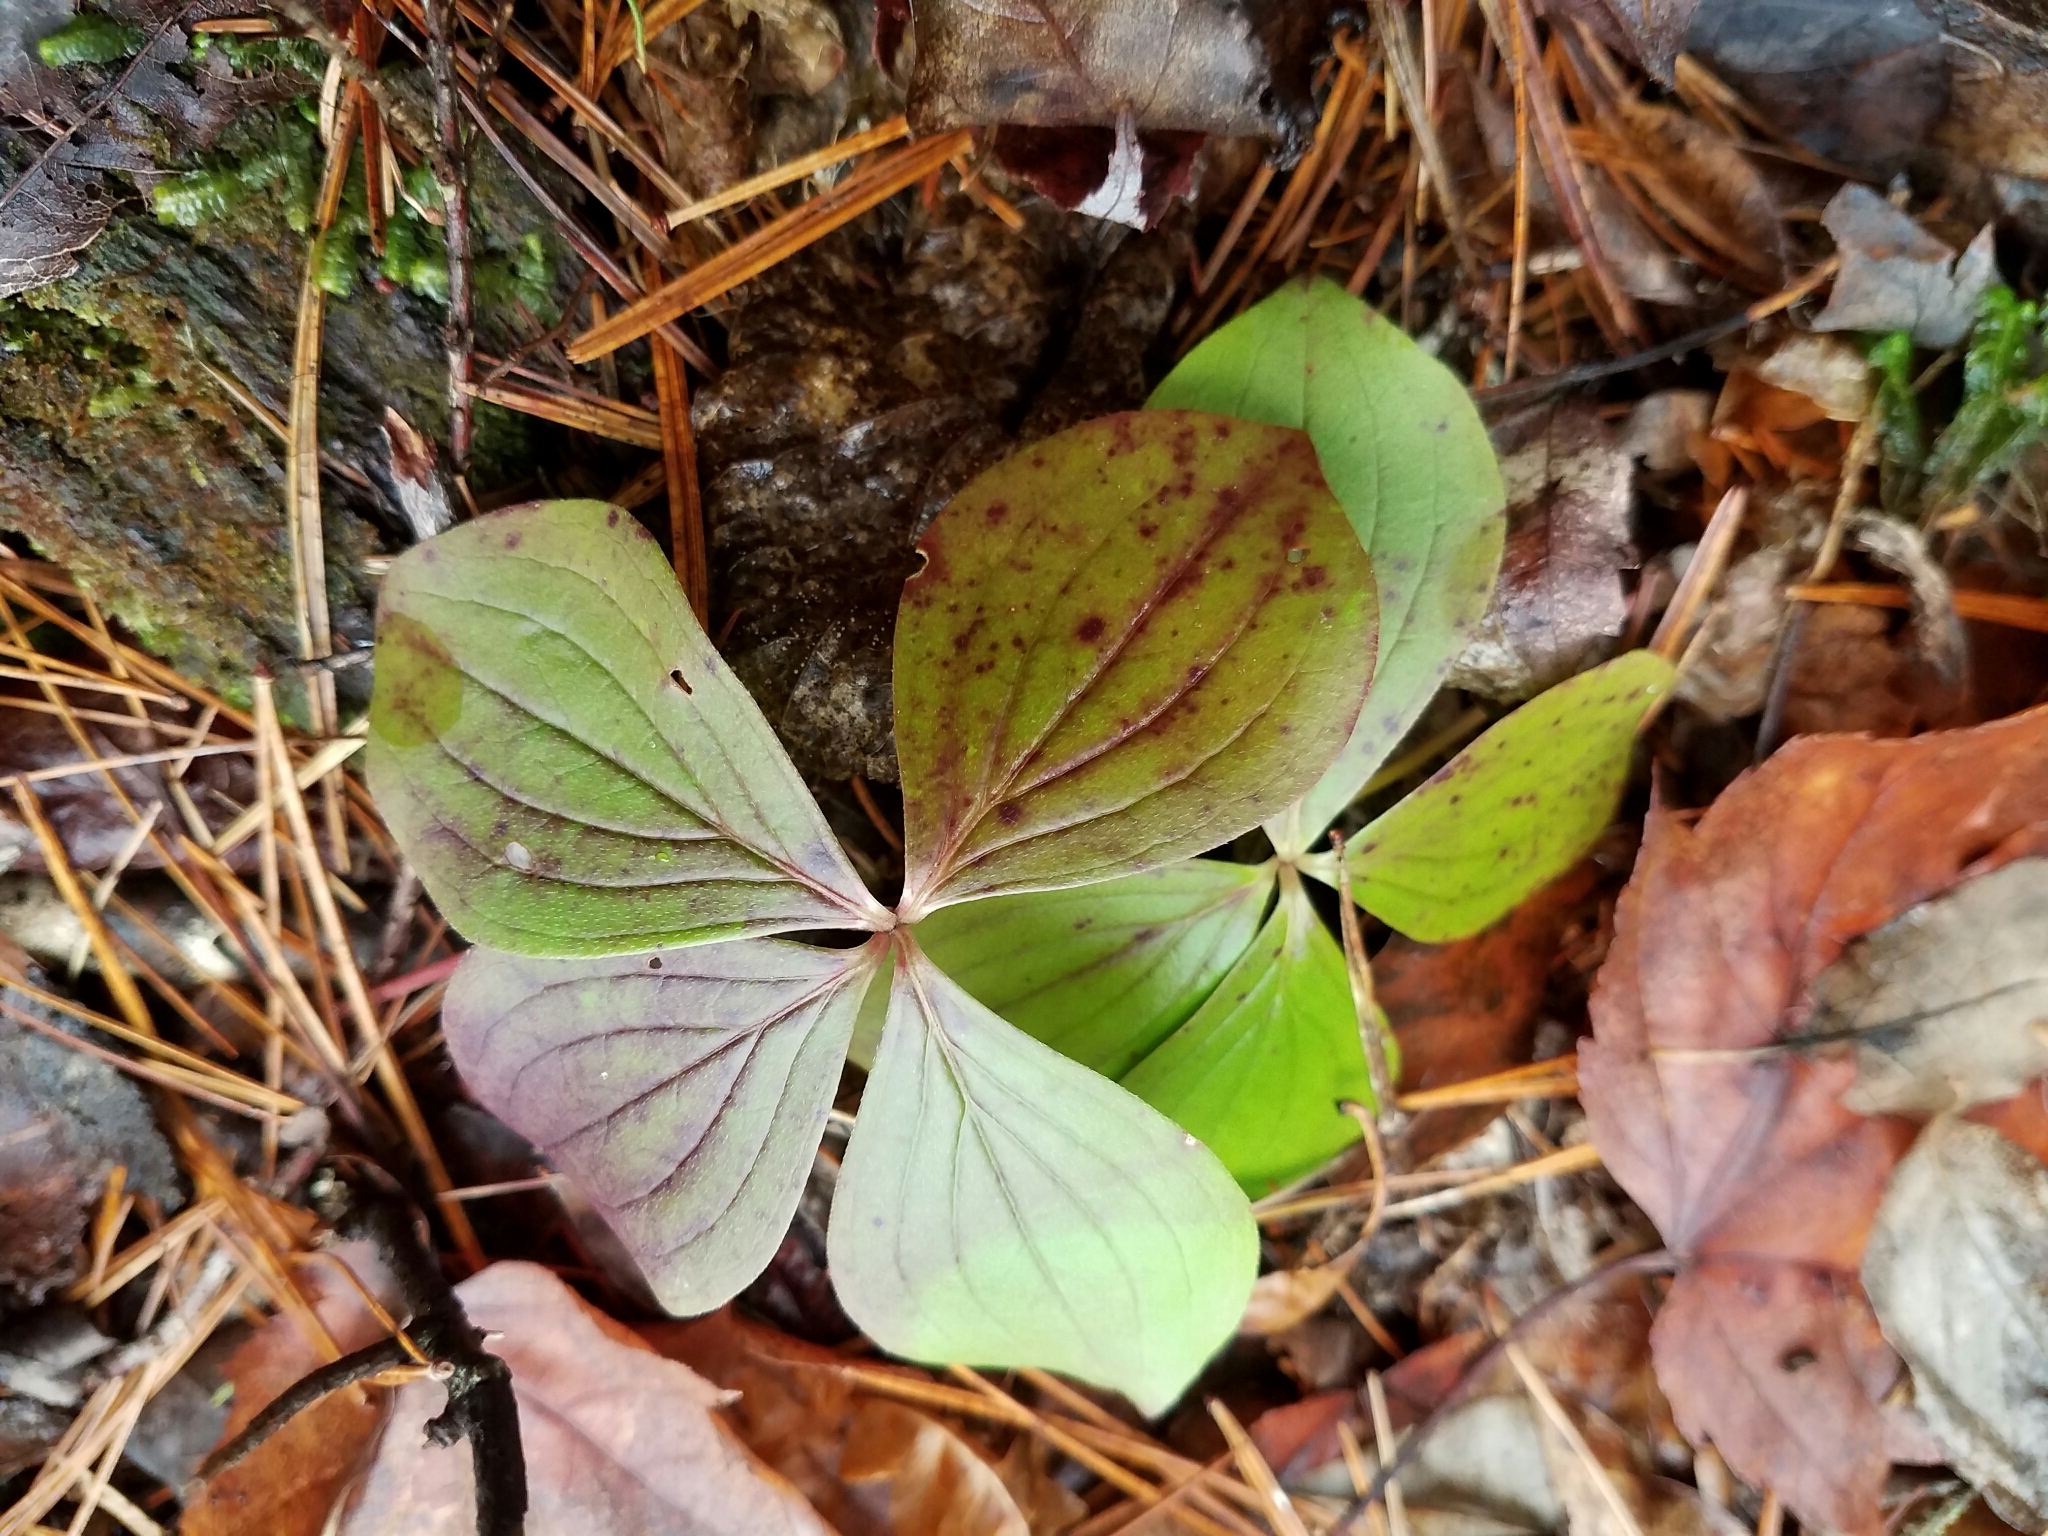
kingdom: Plantae
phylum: Tracheophyta
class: Magnoliopsida
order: Cornales
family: Cornaceae
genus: Cornus
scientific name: Cornus canadensis
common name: Creeping dogwood
